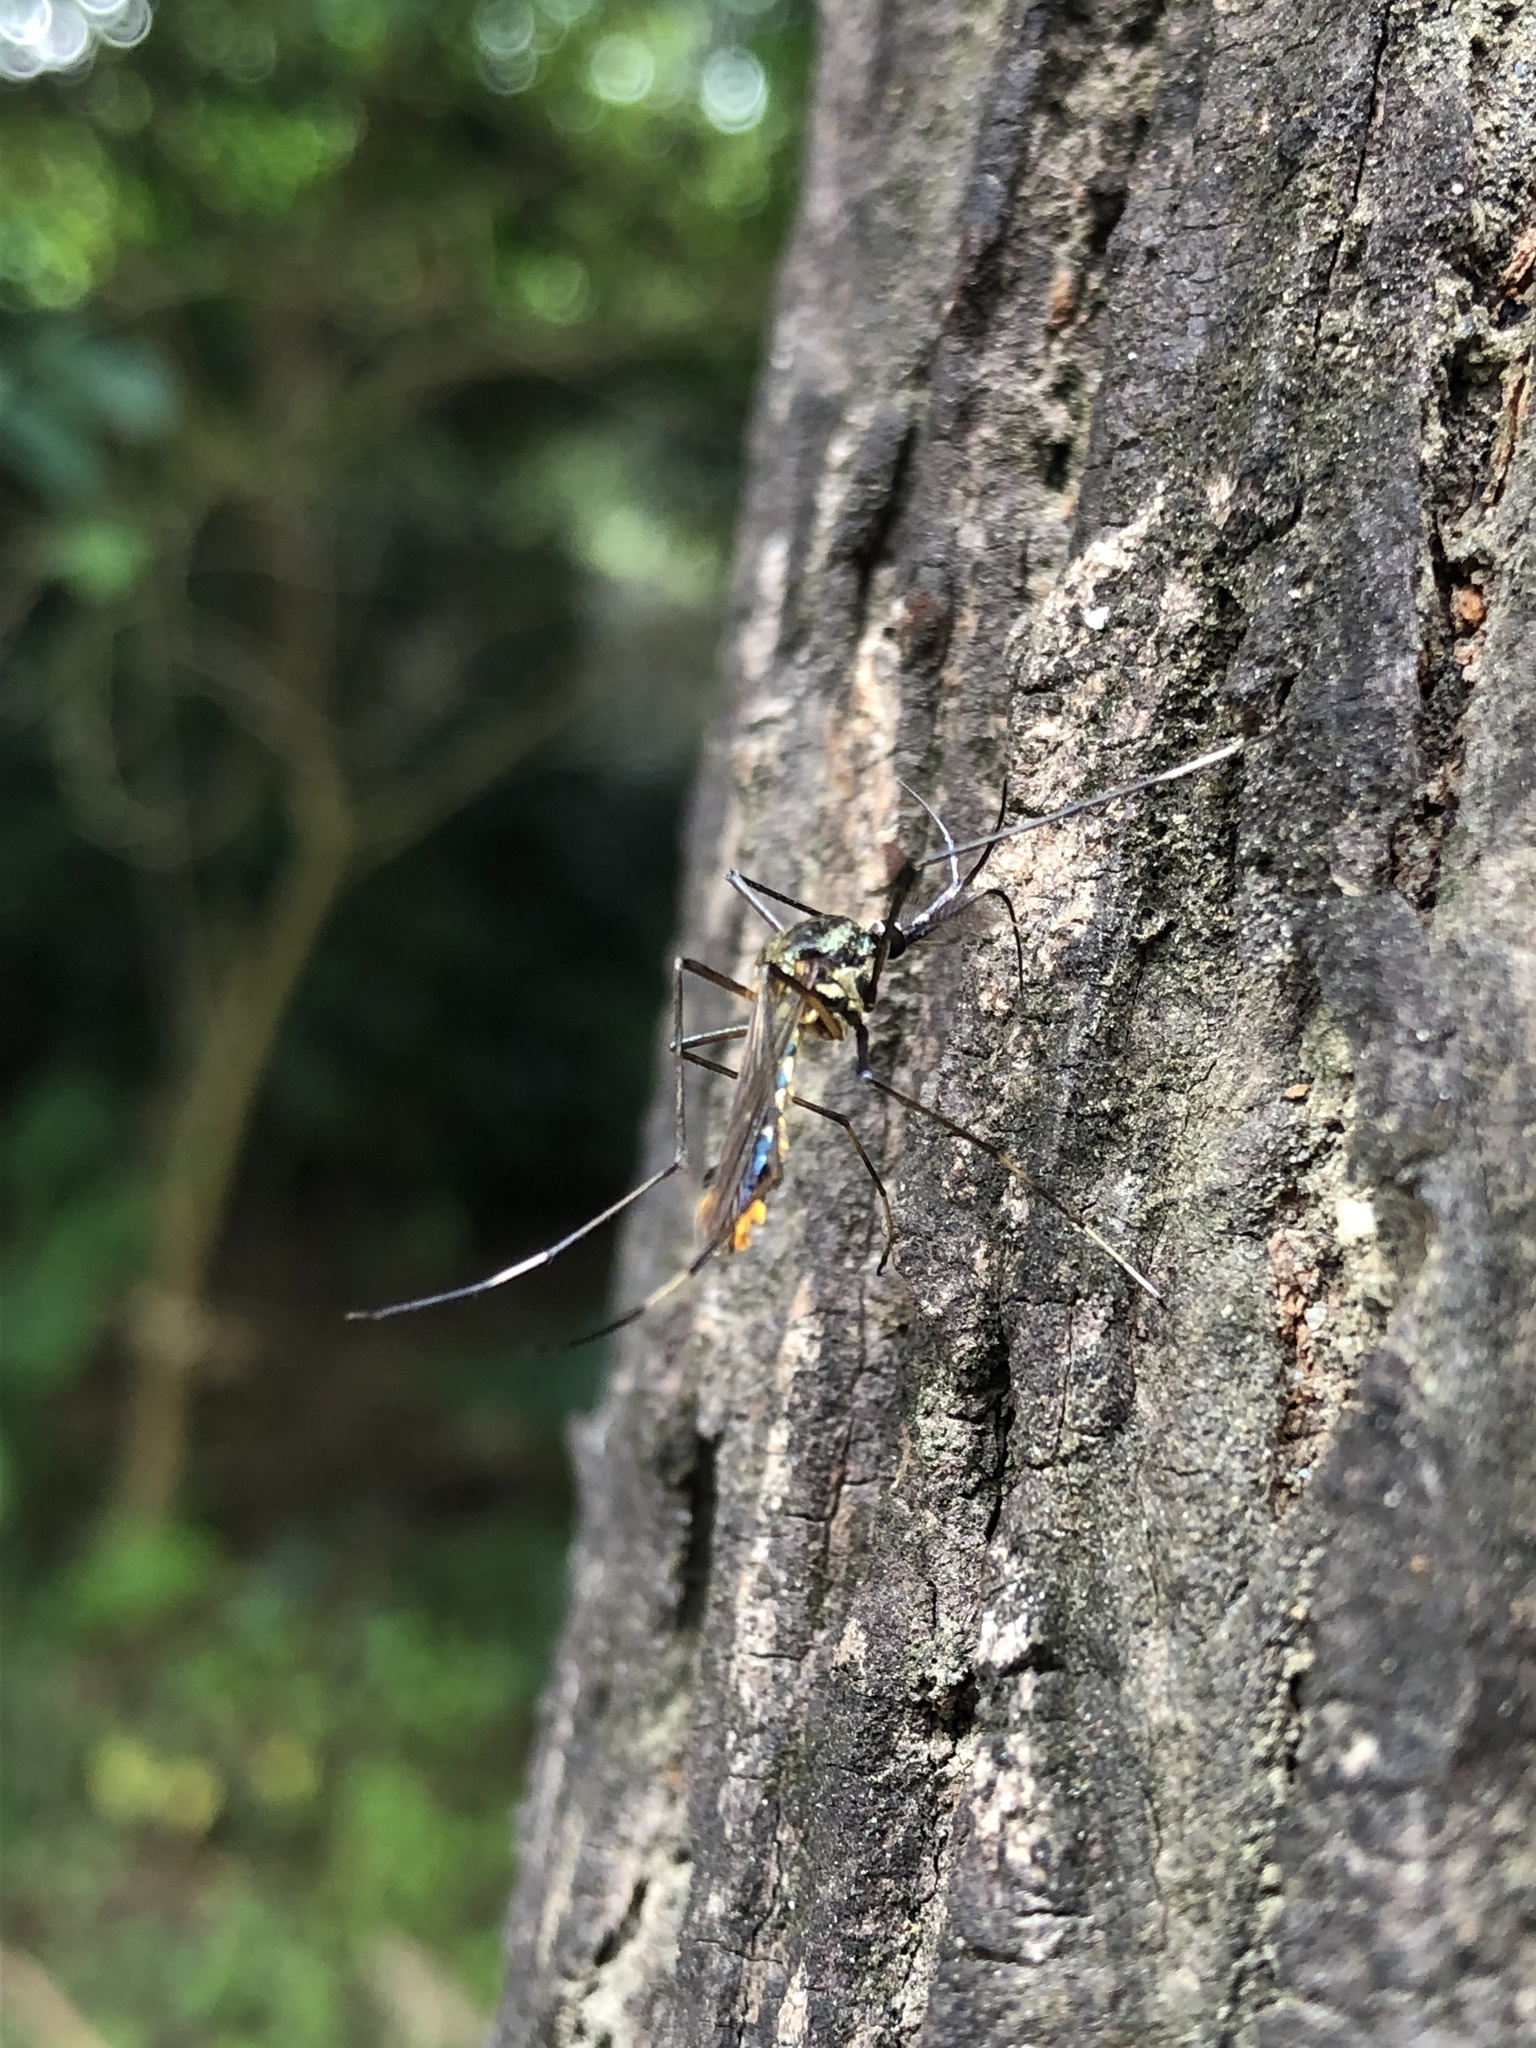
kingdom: Animalia
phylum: Arthropoda
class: Insecta
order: Diptera
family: Culicidae
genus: Toxorhynchites
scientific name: Toxorhynchites splendens
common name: Mosquito
